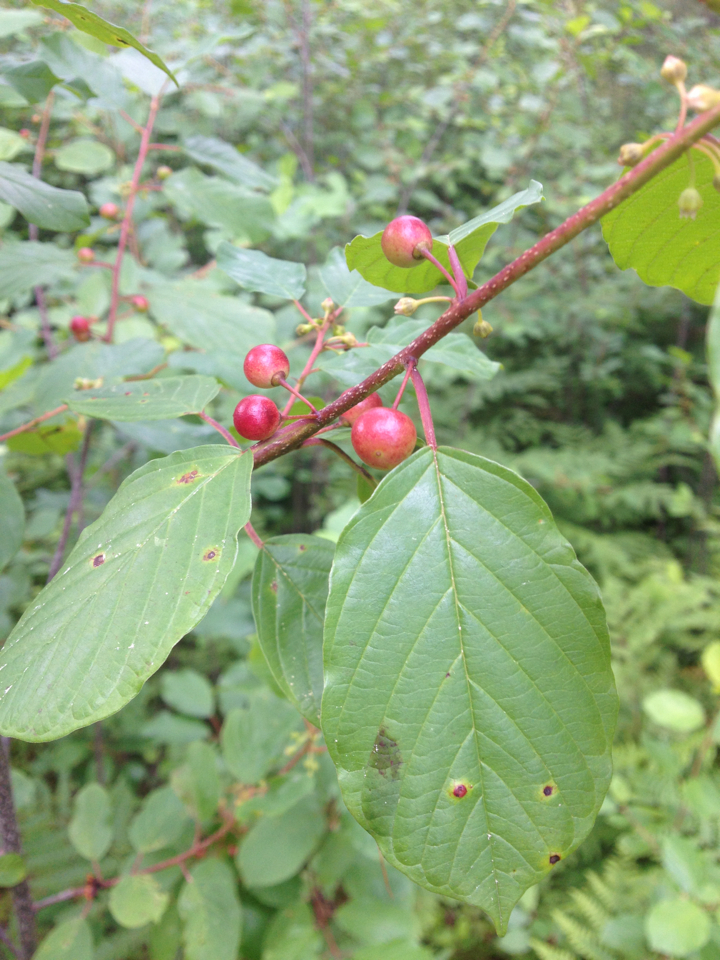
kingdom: Plantae
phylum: Tracheophyta
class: Magnoliopsida
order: Rosales
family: Rhamnaceae
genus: Frangula
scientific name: Frangula alnus
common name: Alder buckthorn
